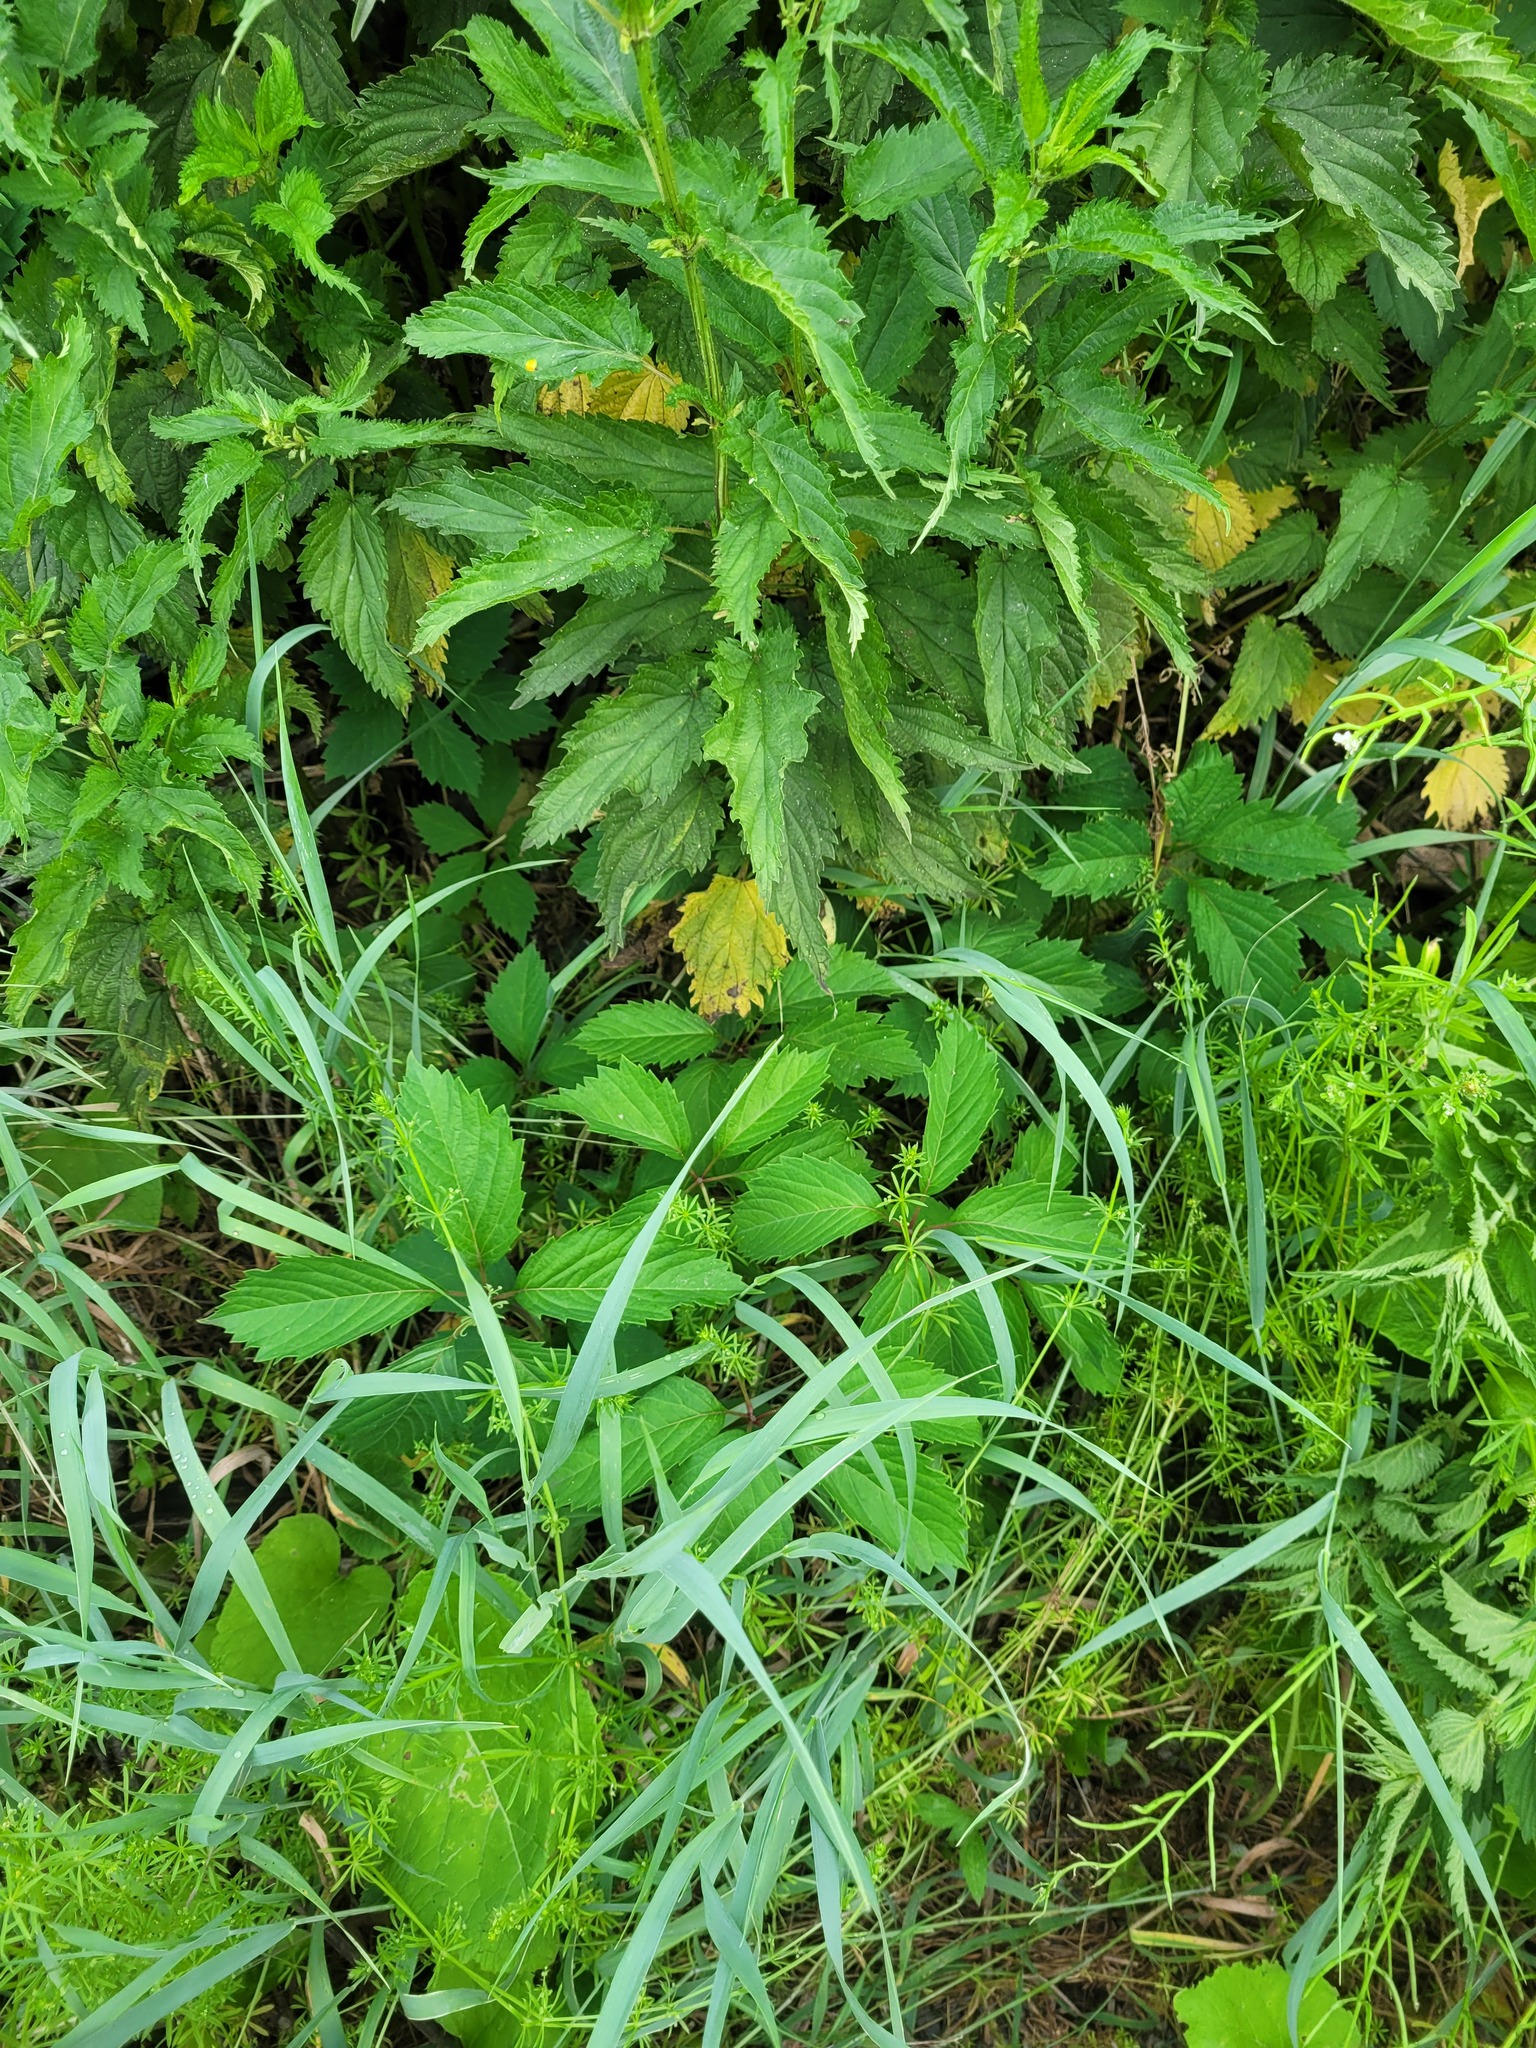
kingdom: Plantae
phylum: Tracheophyta
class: Magnoliopsida
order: Vitales
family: Vitaceae
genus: Parthenocissus
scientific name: Parthenocissus inserta
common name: False virginia-creeper
